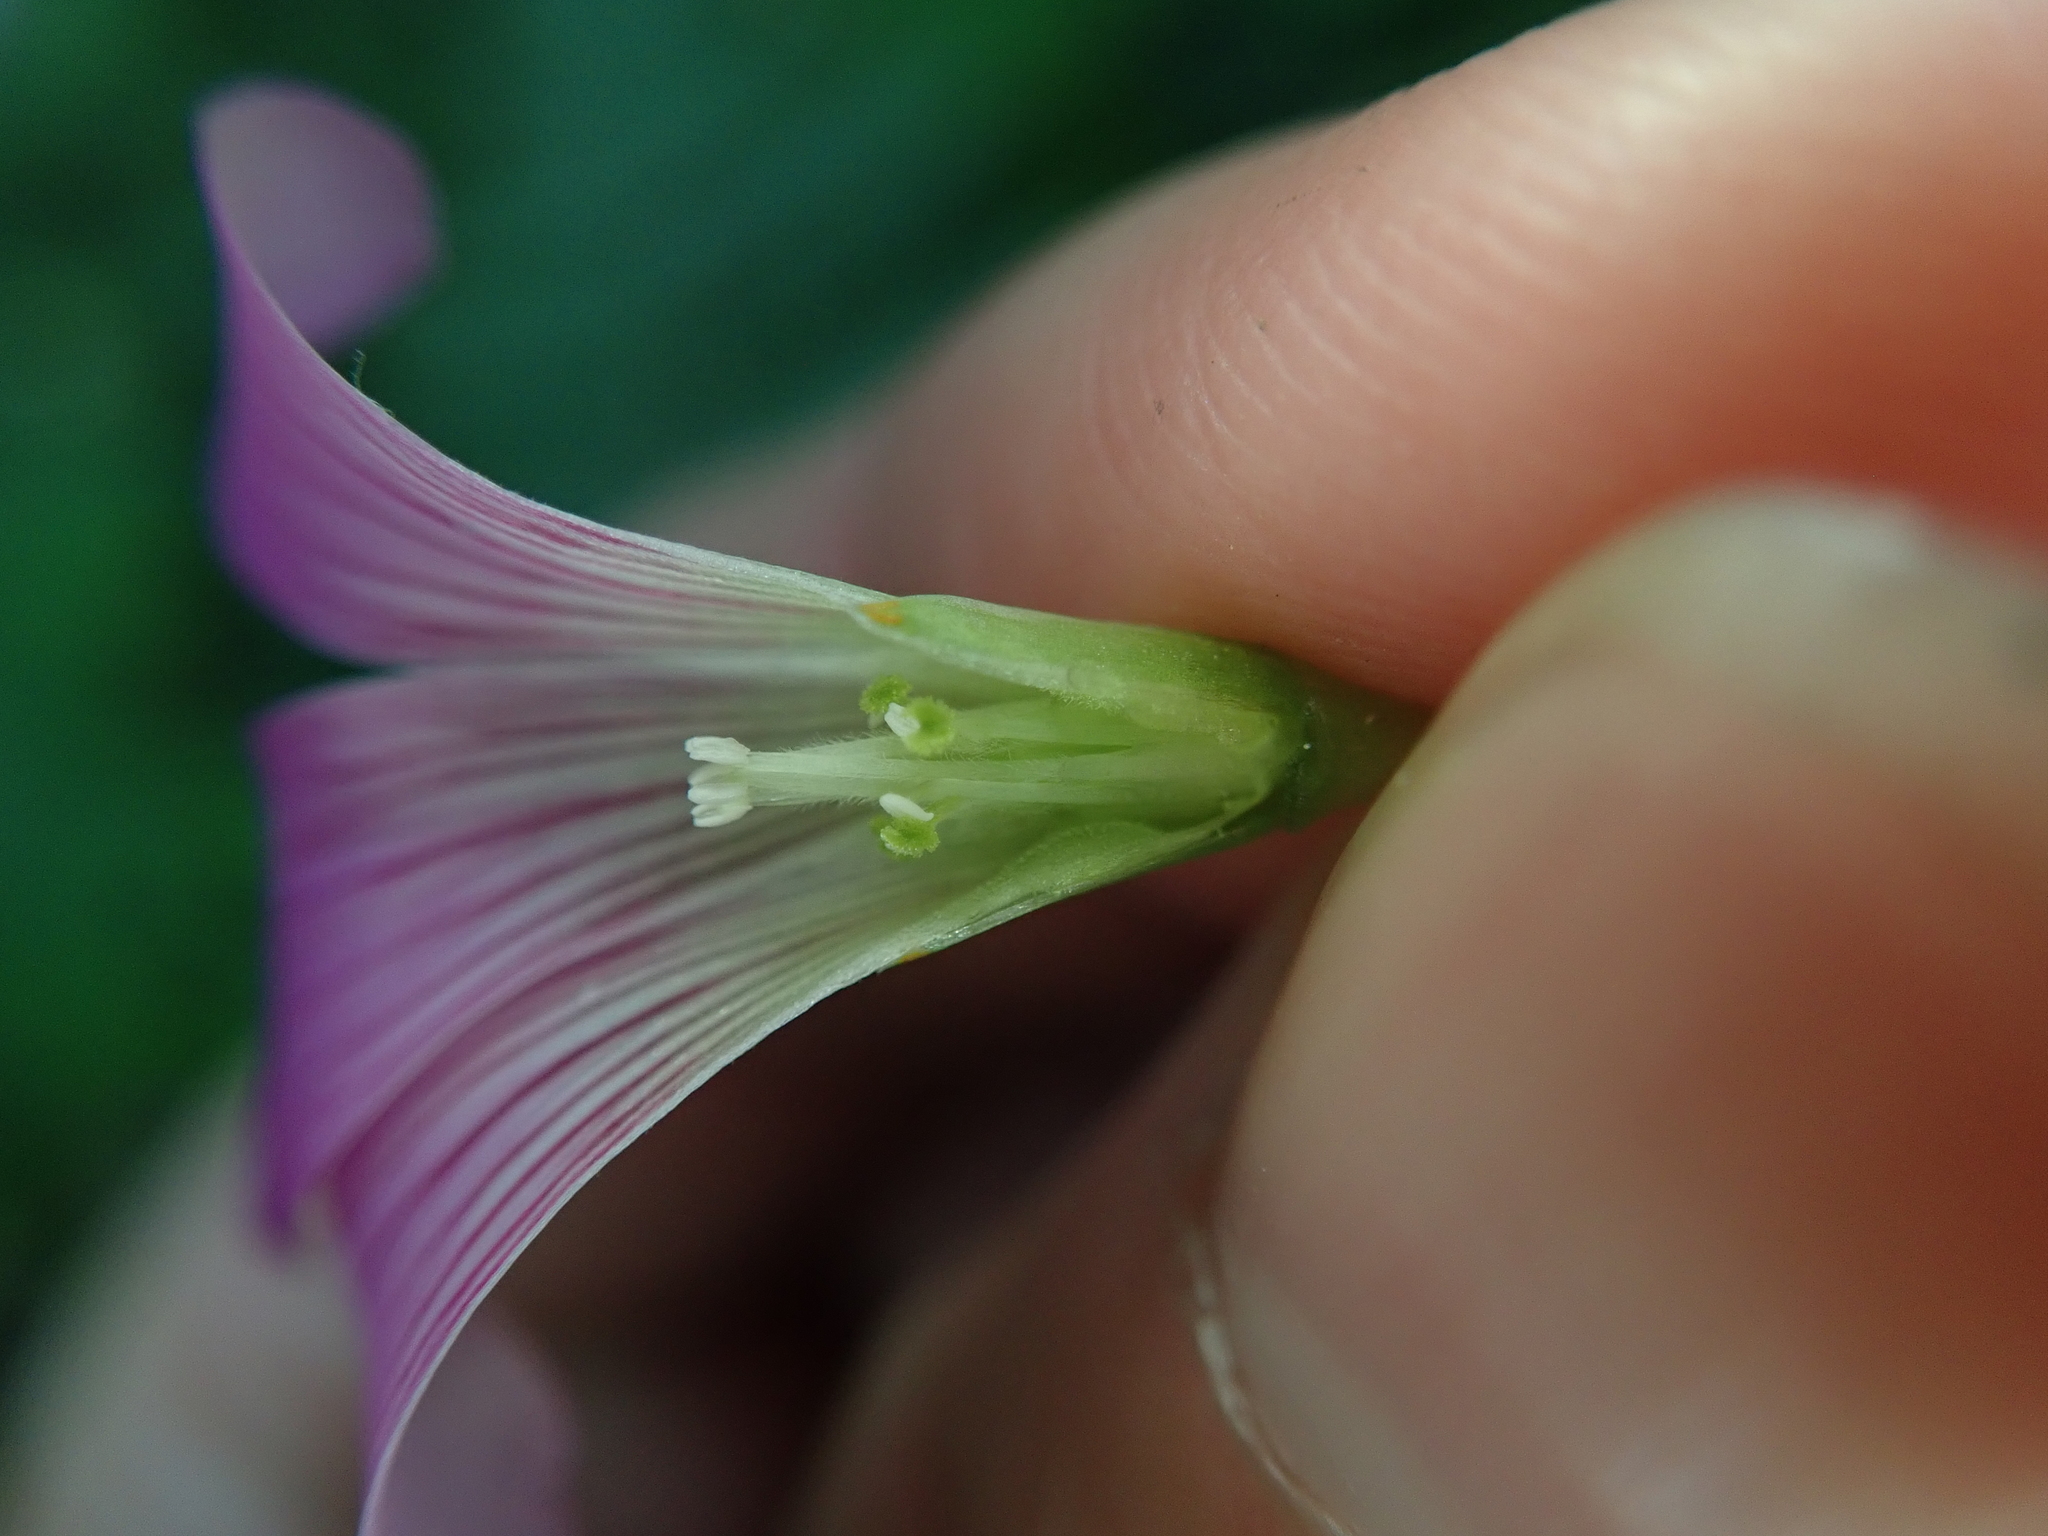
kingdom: Plantae
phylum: Tracheophyta
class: Magnoliopsida
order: Oxalidales
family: Oxalidaceae
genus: Oxalis
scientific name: Oxalis debilis
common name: Large-flowered pink-sorrel
